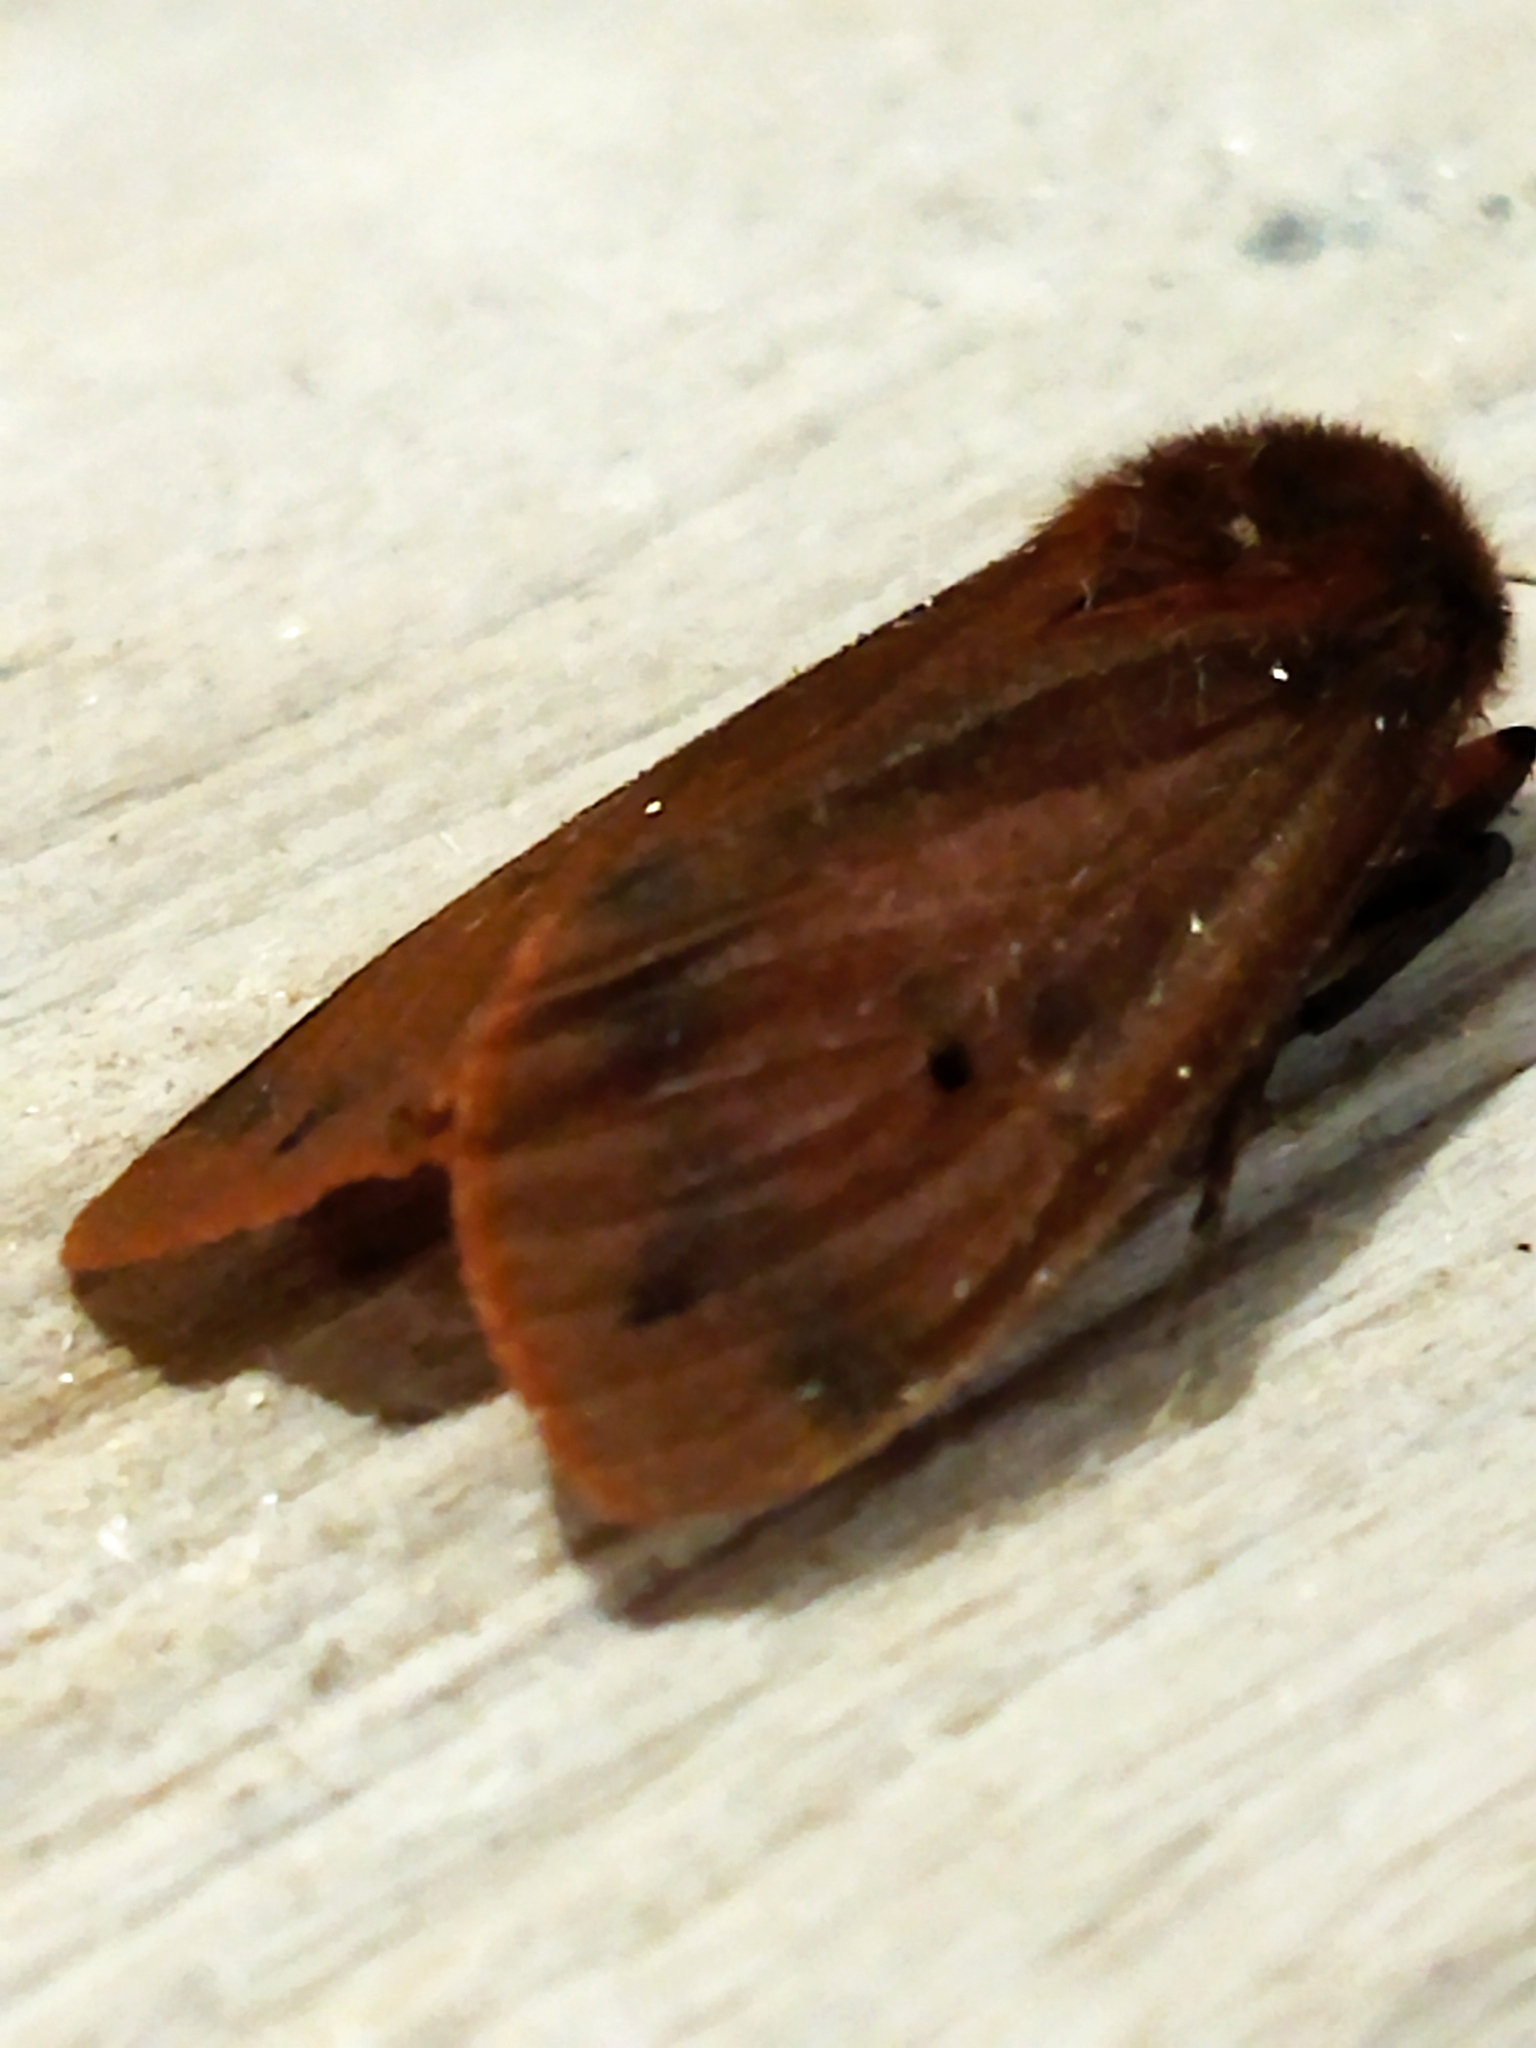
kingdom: Animalia
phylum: Arthropoda
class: Insecta
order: Lepidoptera
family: Erebidae
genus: Phragmatobia
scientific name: Phragmatobia fuliginosa
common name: Ruby tiger
